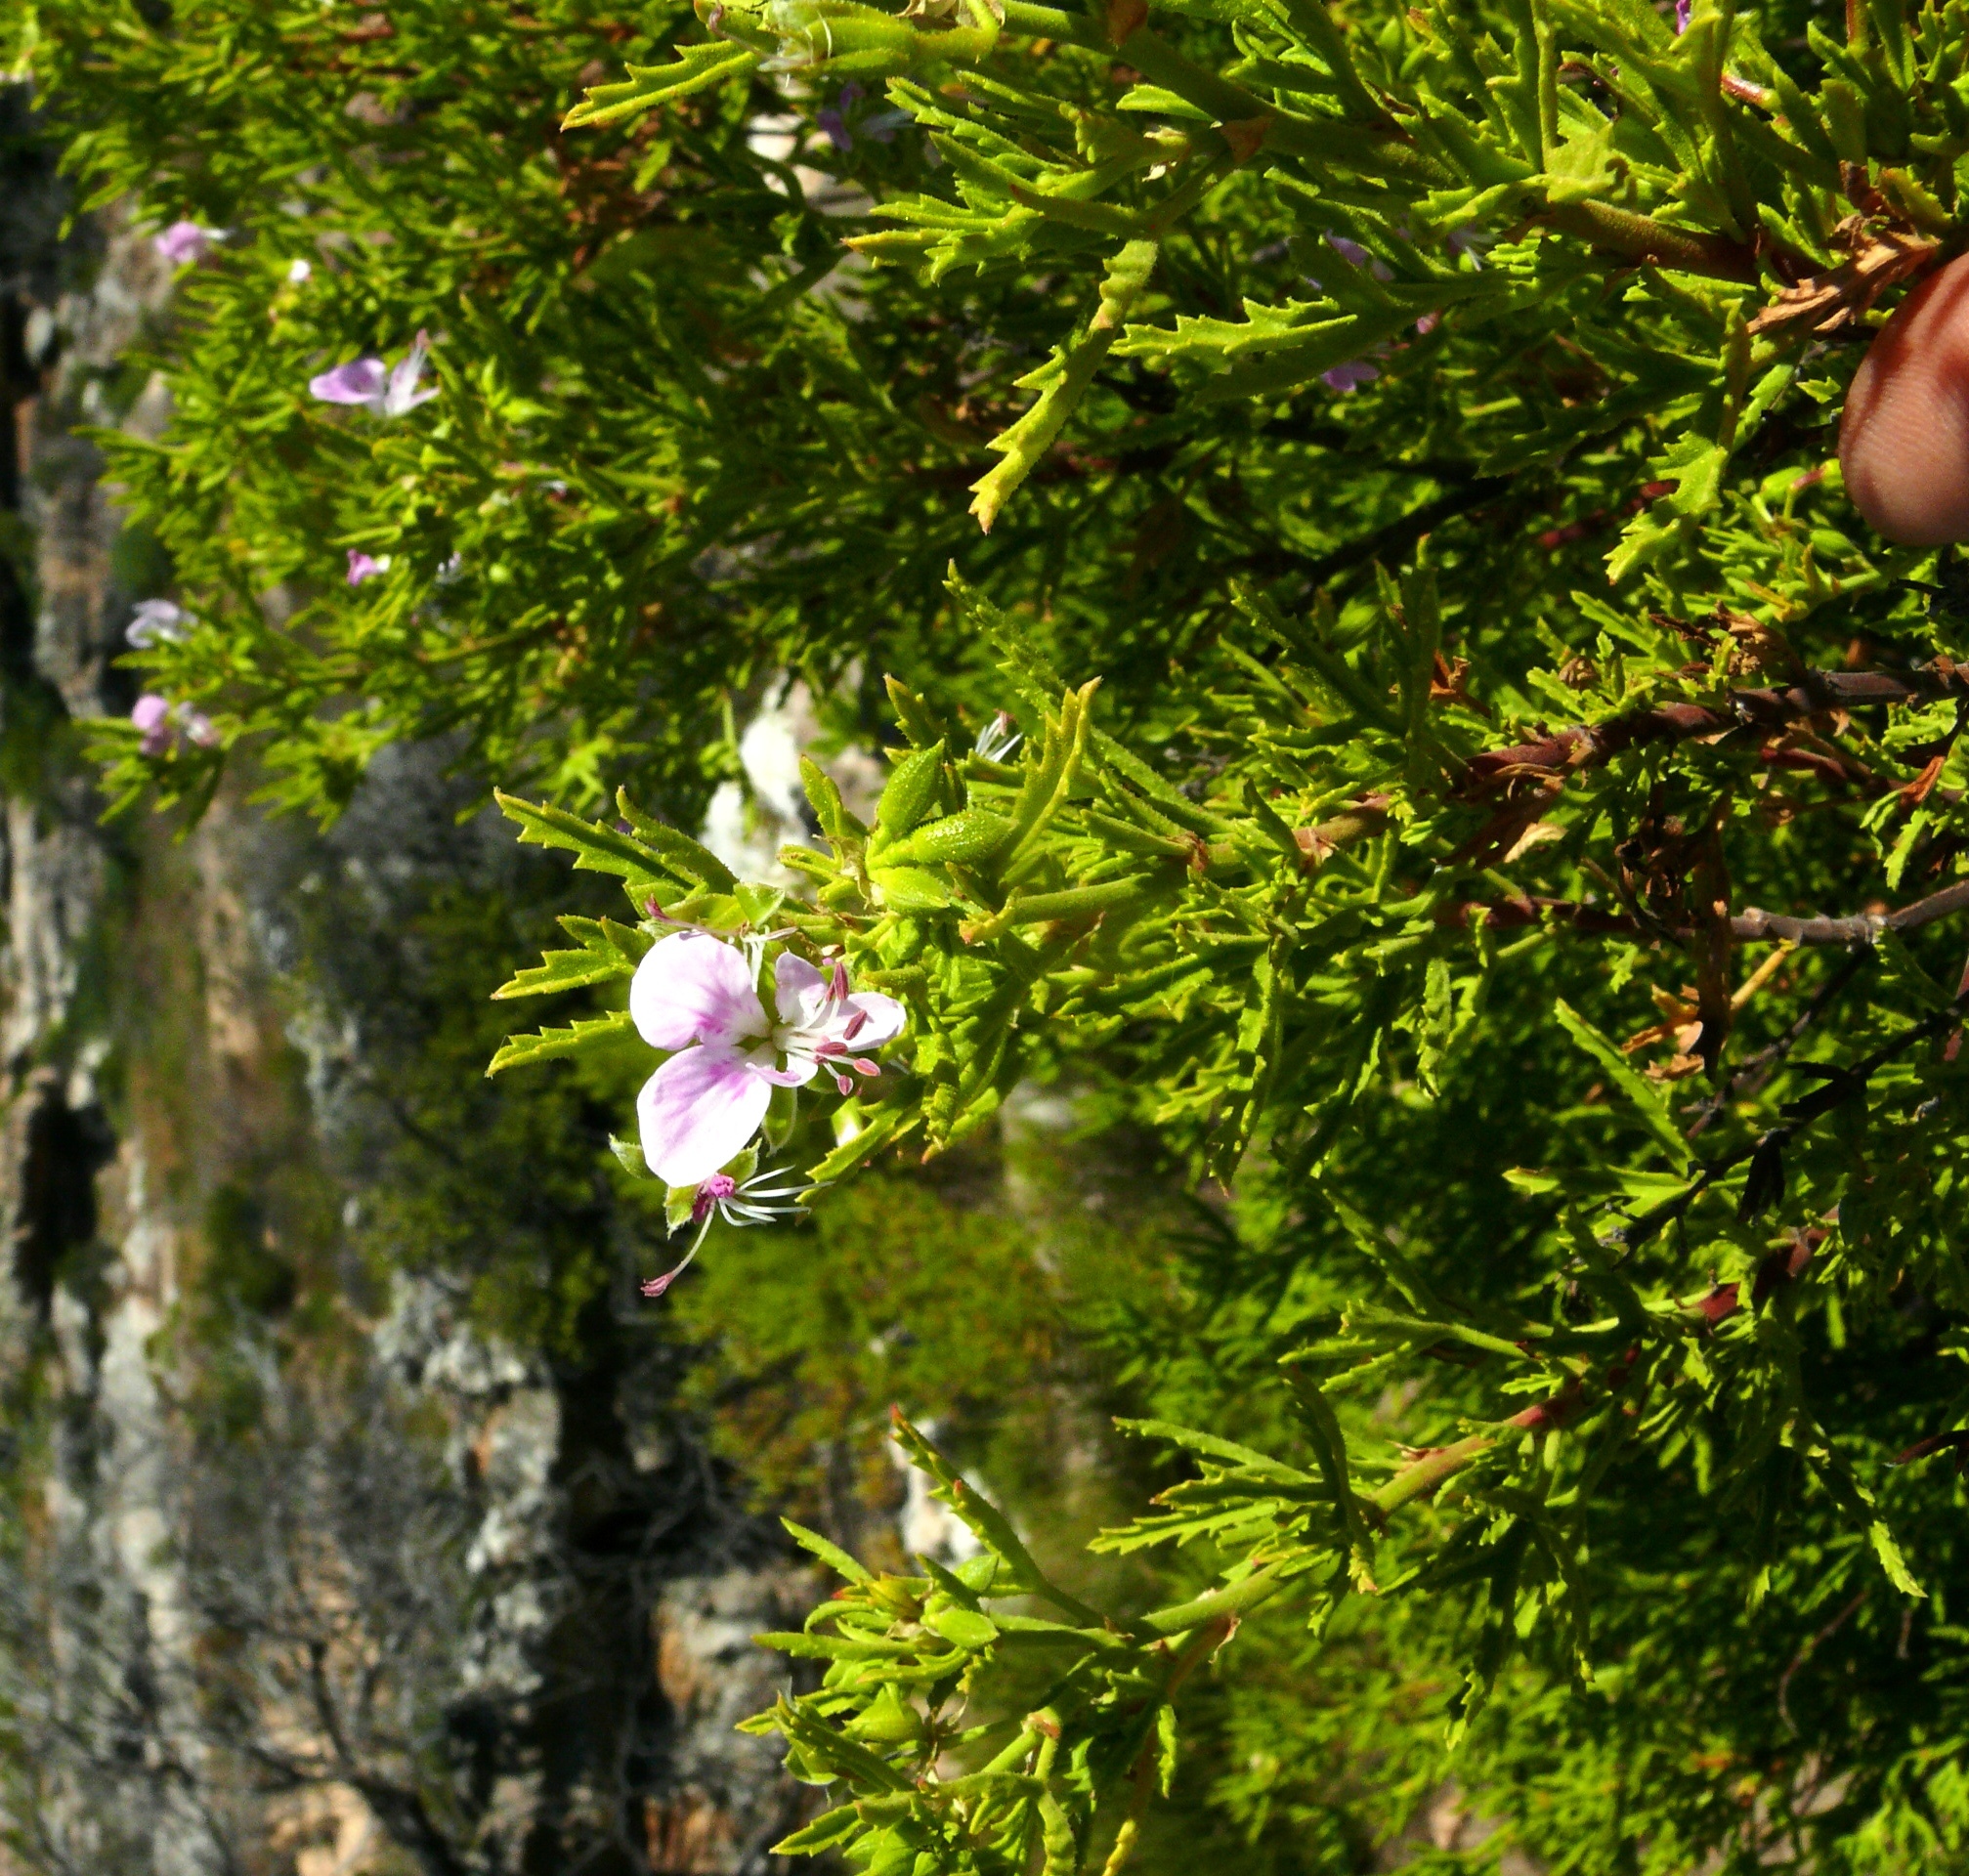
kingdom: Plantae
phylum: Tracheophyta
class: Magnoliopsida
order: Geraniales
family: Geraniaceae
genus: Pelargonium
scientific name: Pelargonium scabrum
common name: Apricot geranium
